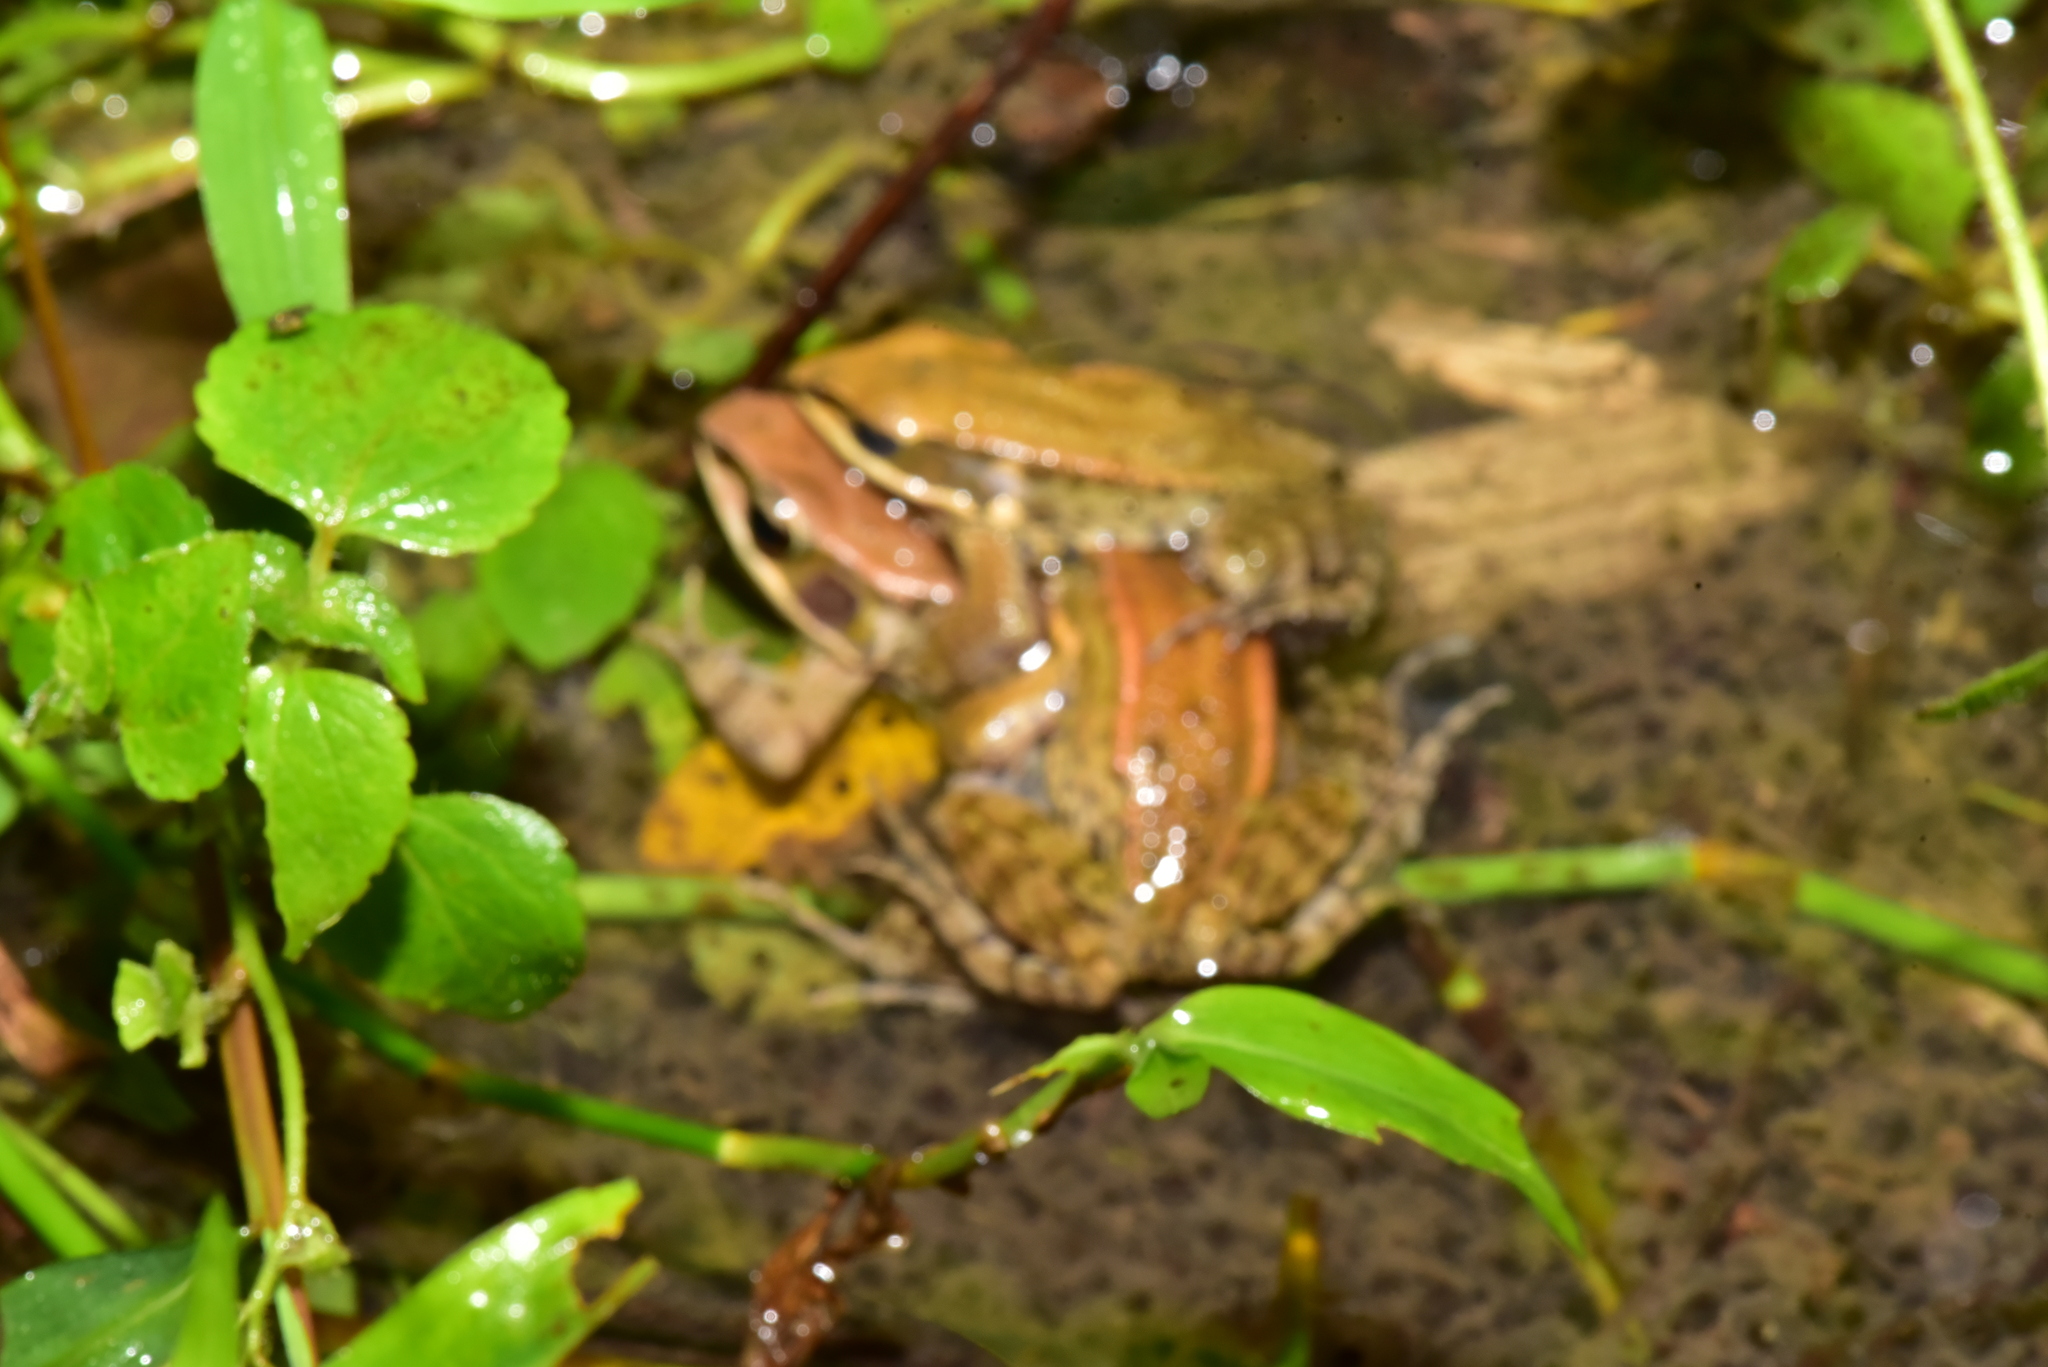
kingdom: Animalia
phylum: Chordata
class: Amphibia
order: Anura
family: Ranidae
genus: Hylarana
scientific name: Hylarana latouchii
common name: Broad-folded frog
